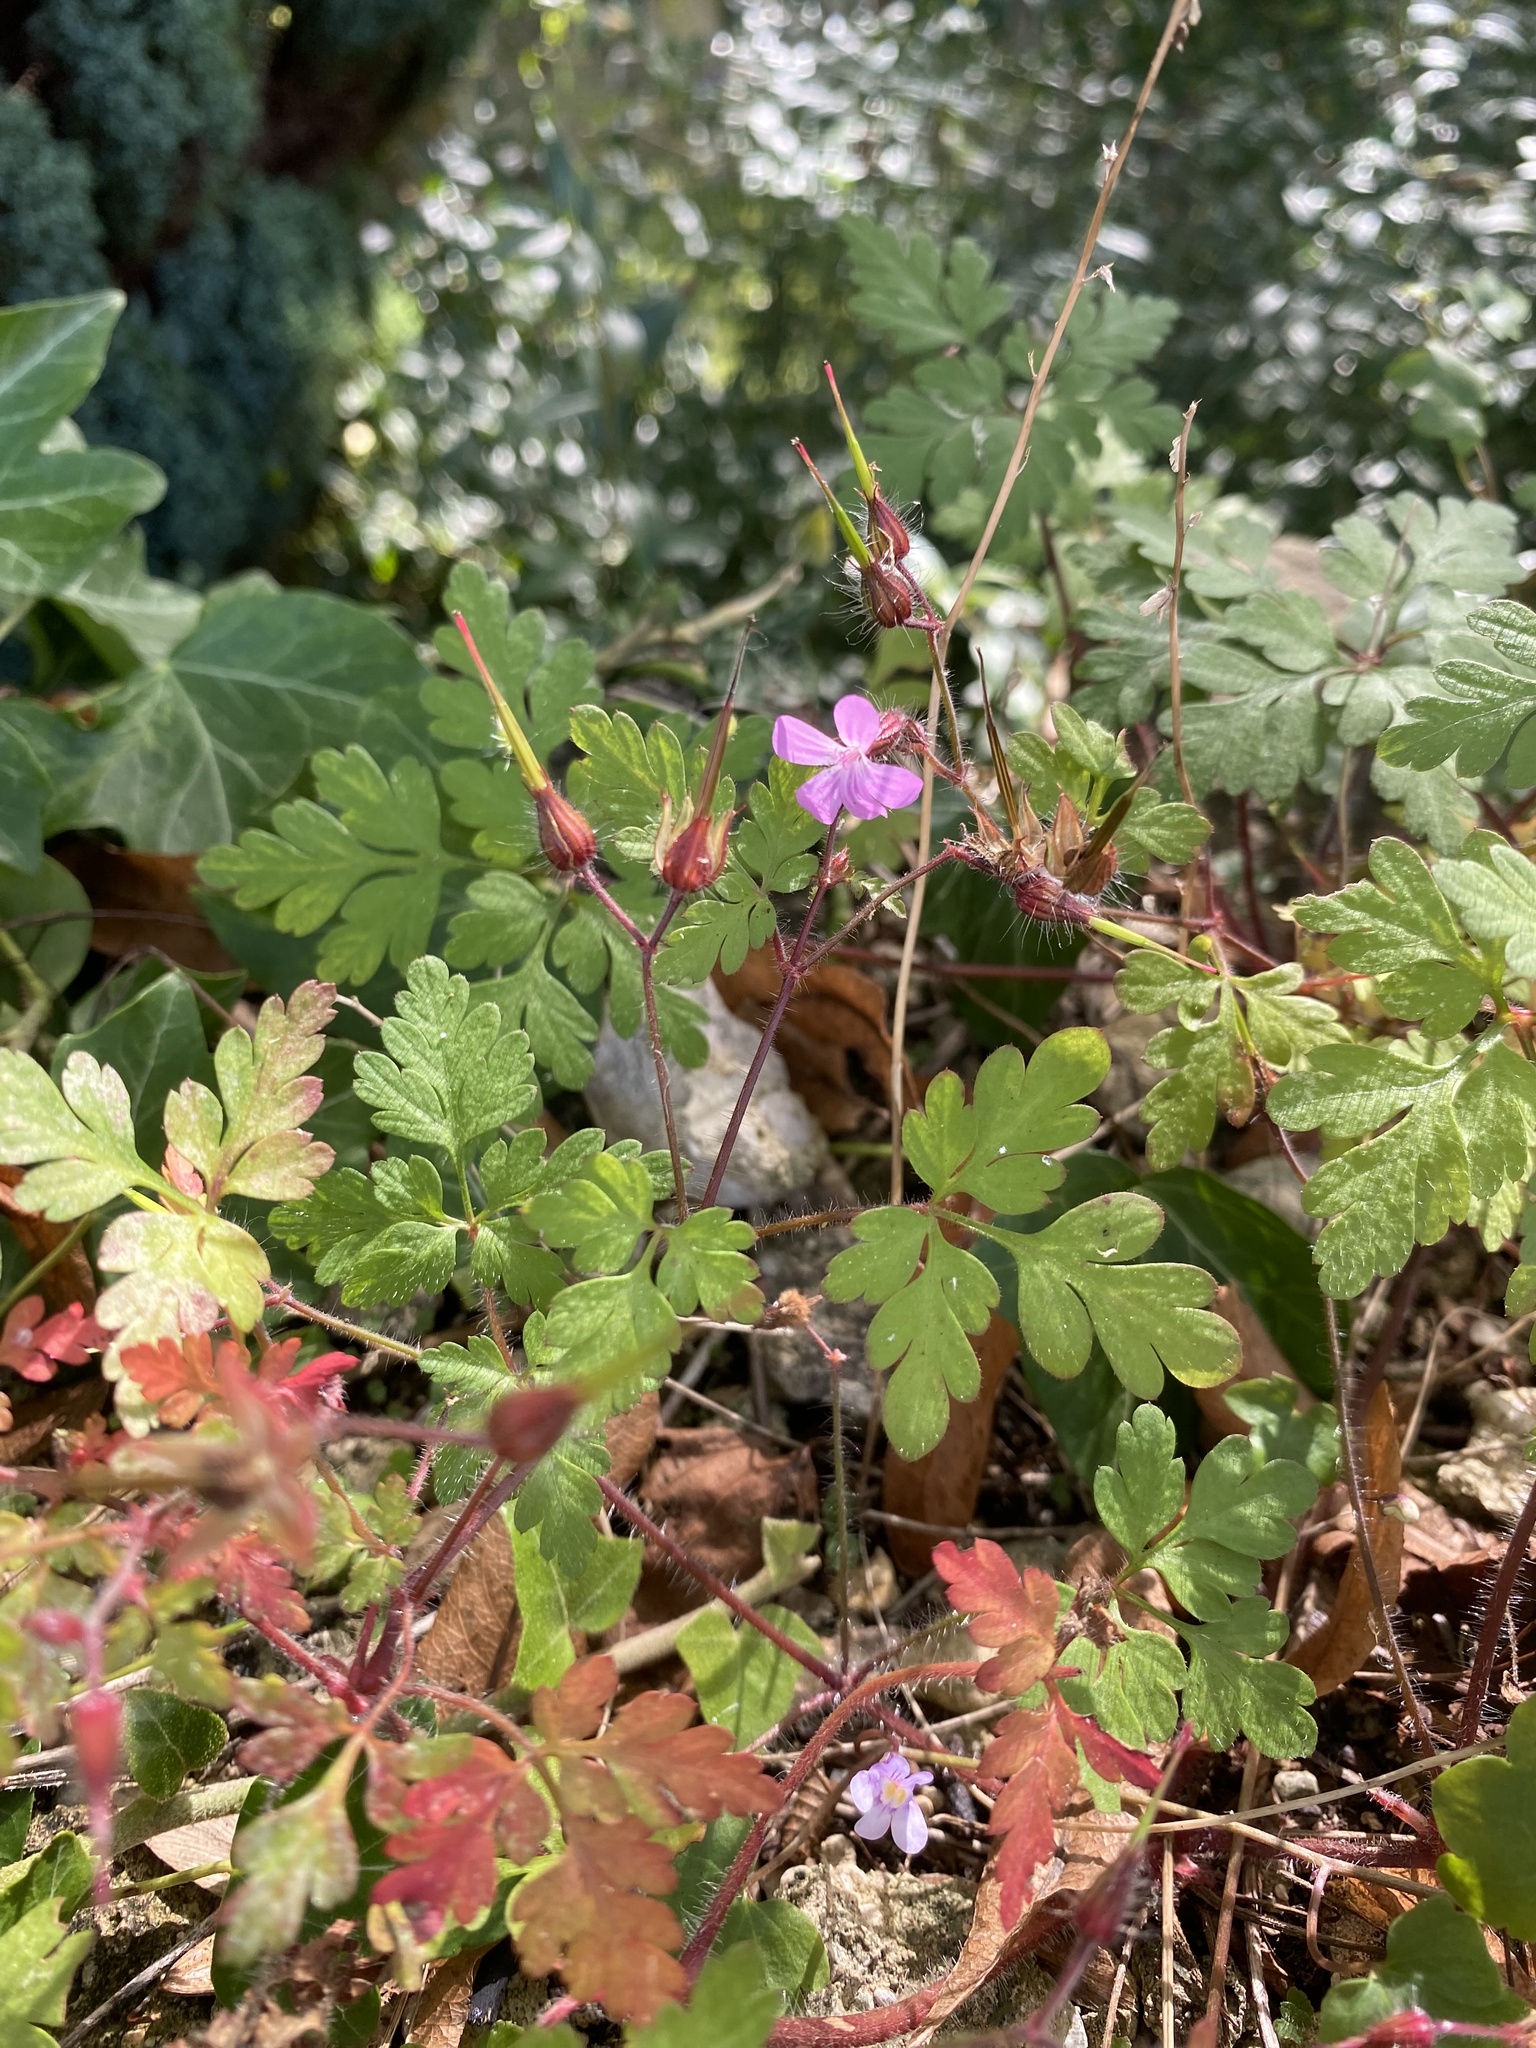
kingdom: Plantae
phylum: Tracheophyta
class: Magnoliopsida
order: Geraniales
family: Geraniaceae
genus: Geranium
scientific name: Geranium robertianum
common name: Herb-robert
